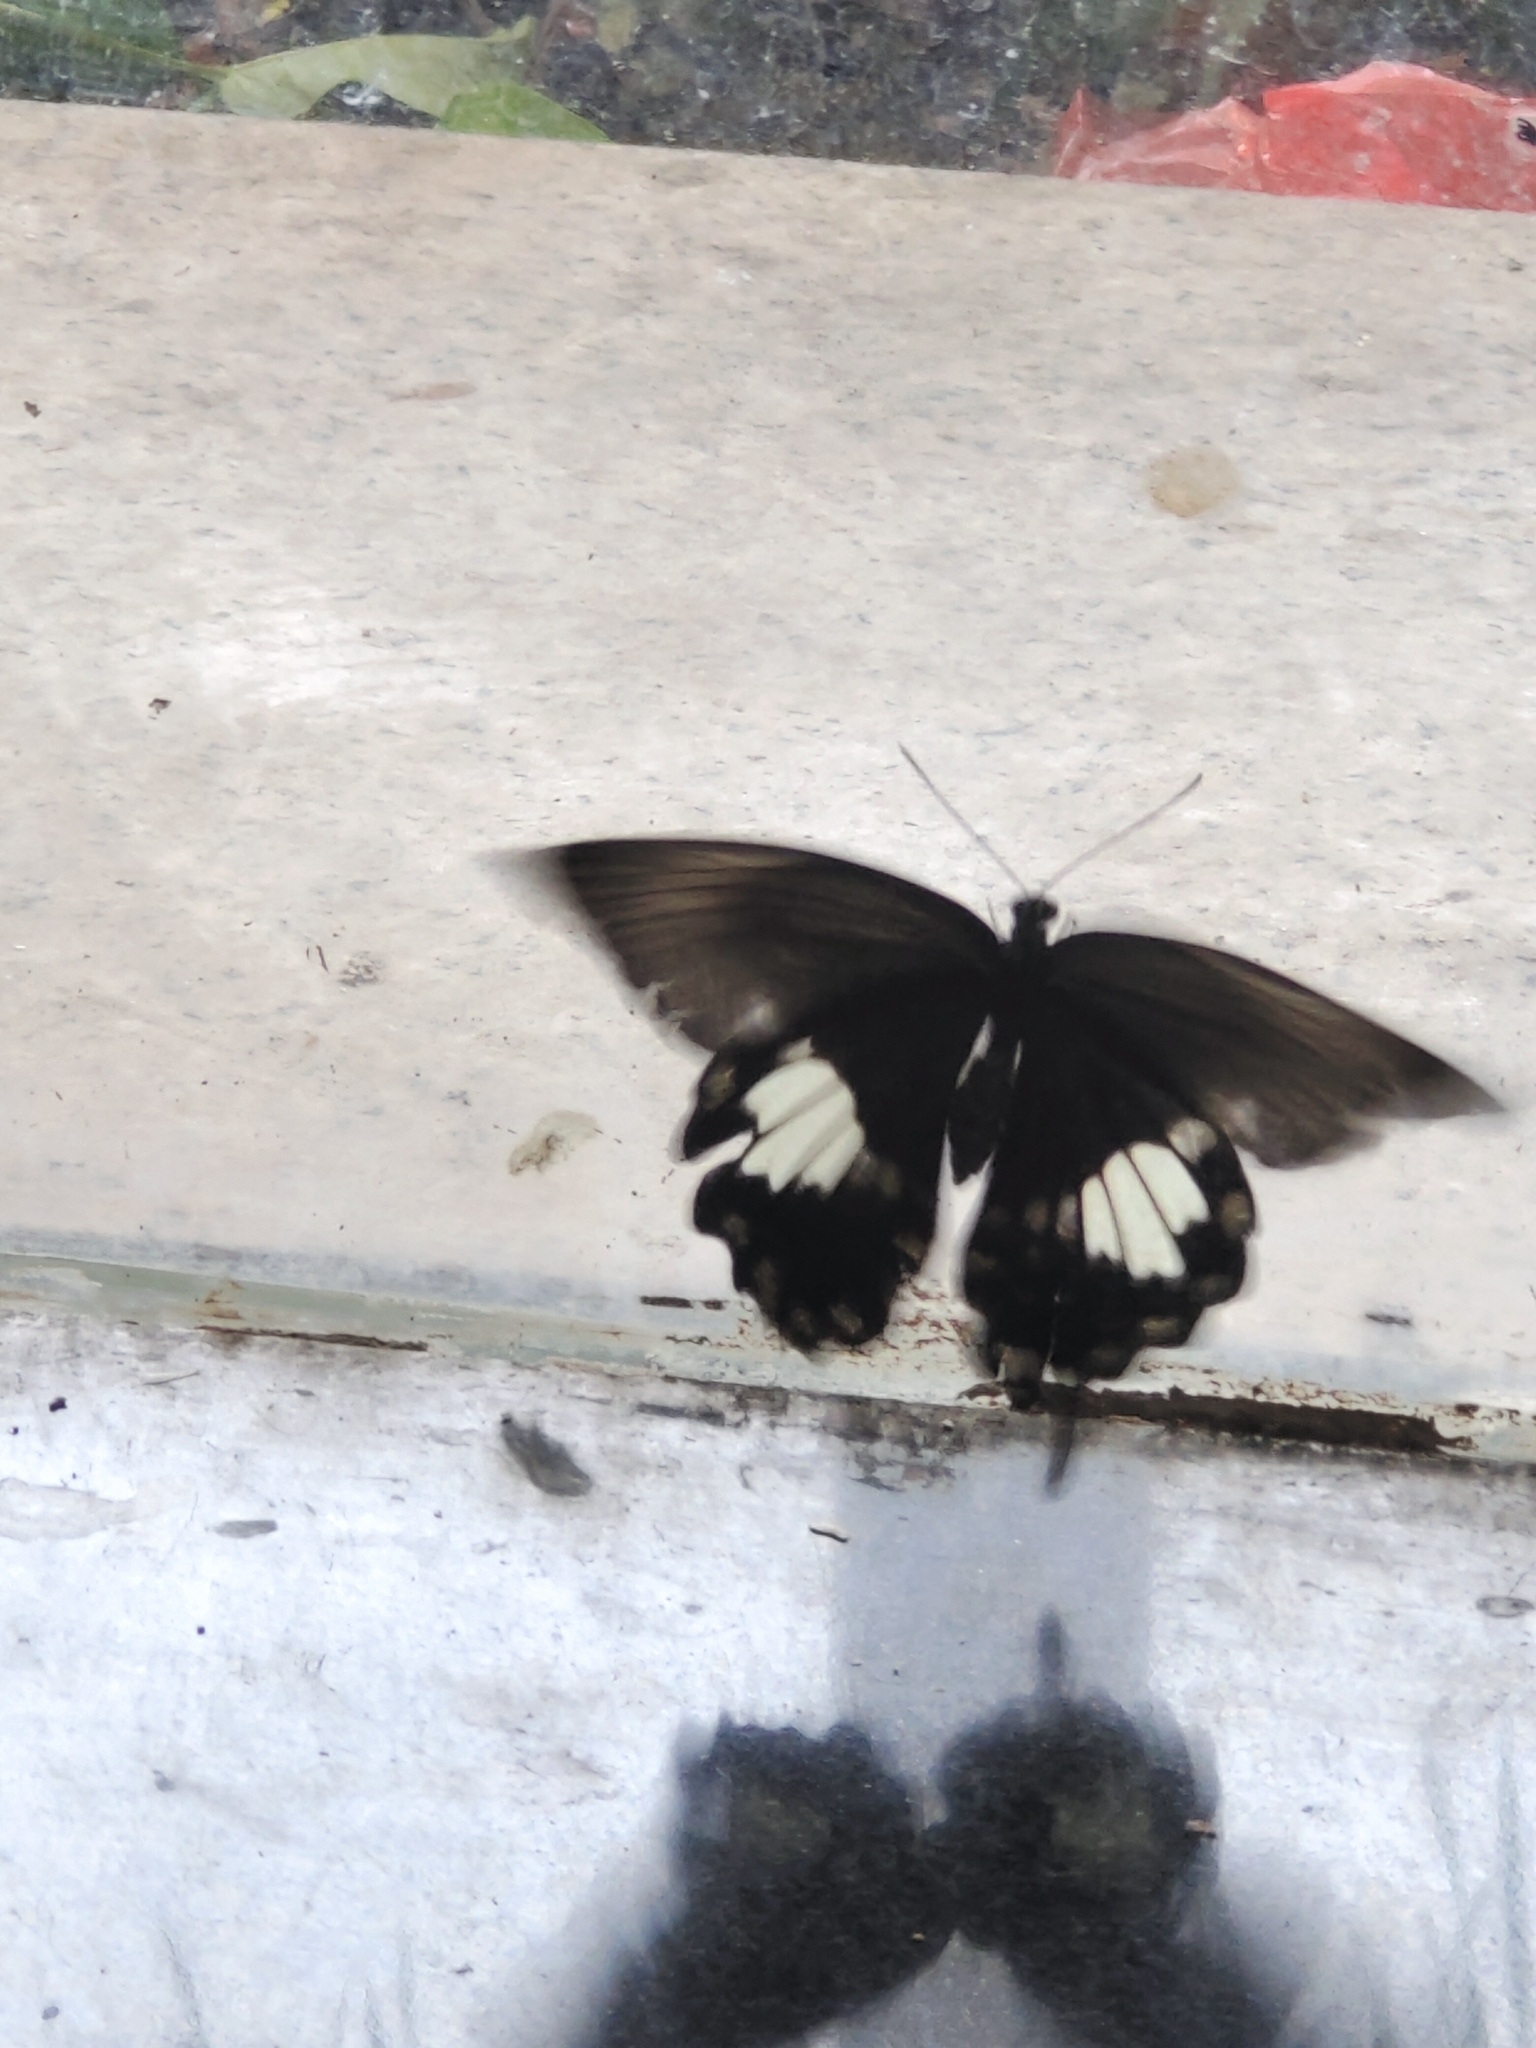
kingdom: Animalia
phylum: Arthropoda
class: Insecta
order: Lepidoptera
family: Papilionidae
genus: Papilio
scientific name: Papilio nephelus
